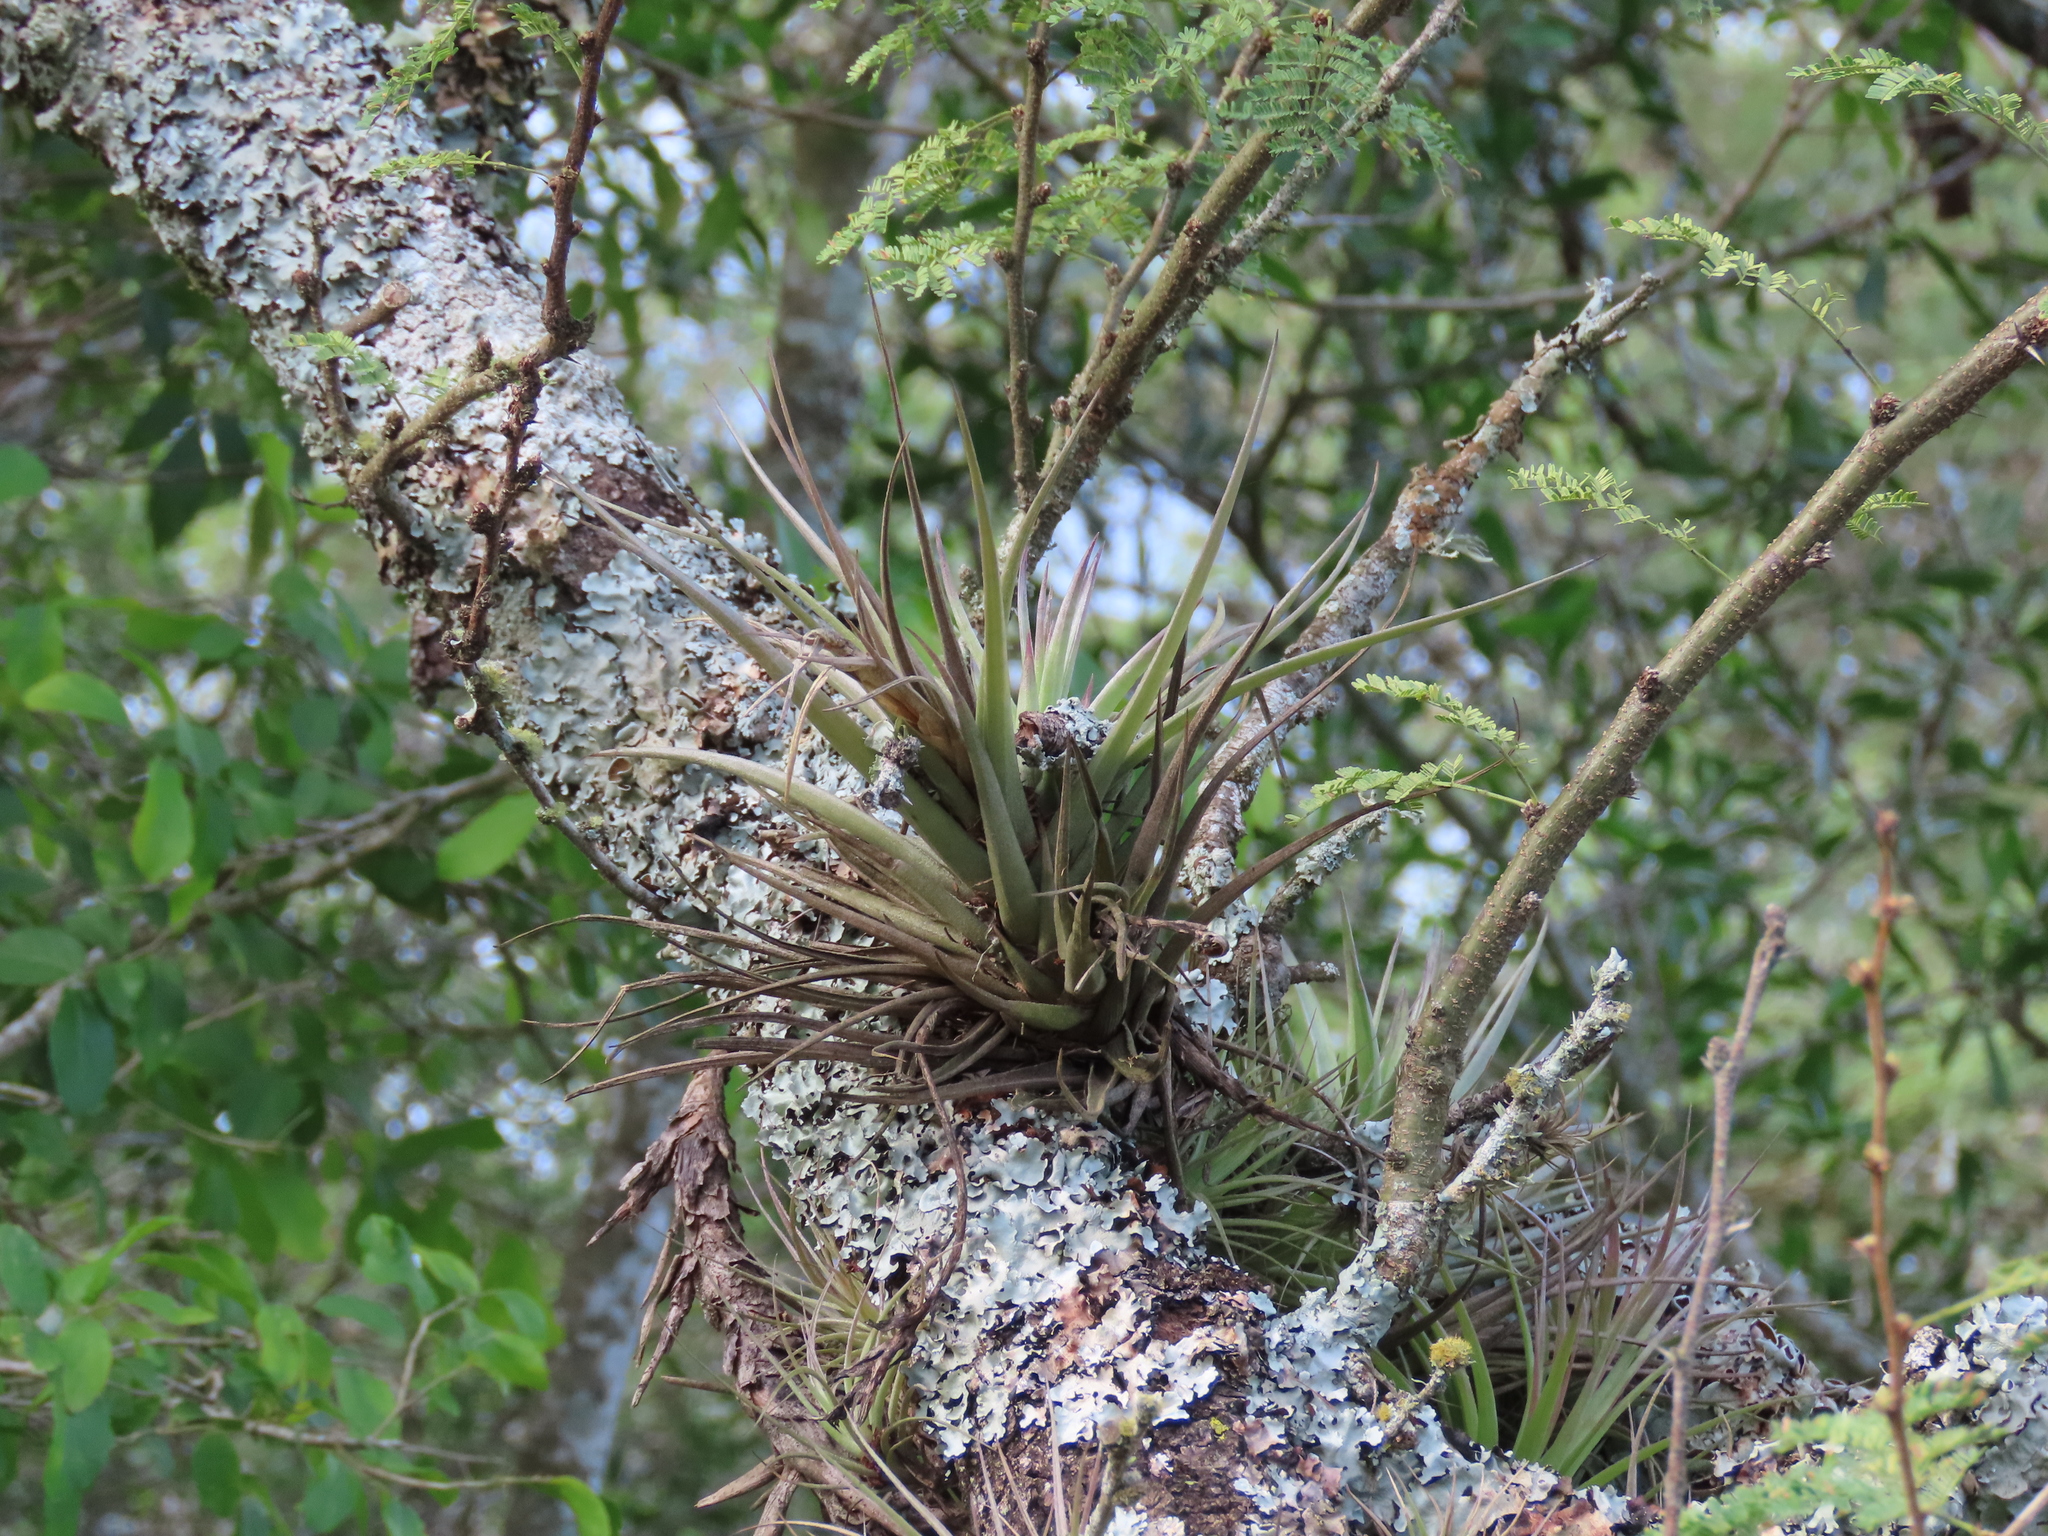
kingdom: Plantae
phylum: Tracheophyta
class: Liliopsida
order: Poales
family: Bromeliaceae
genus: Tillandsia
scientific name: Tillandsia aeranthos
